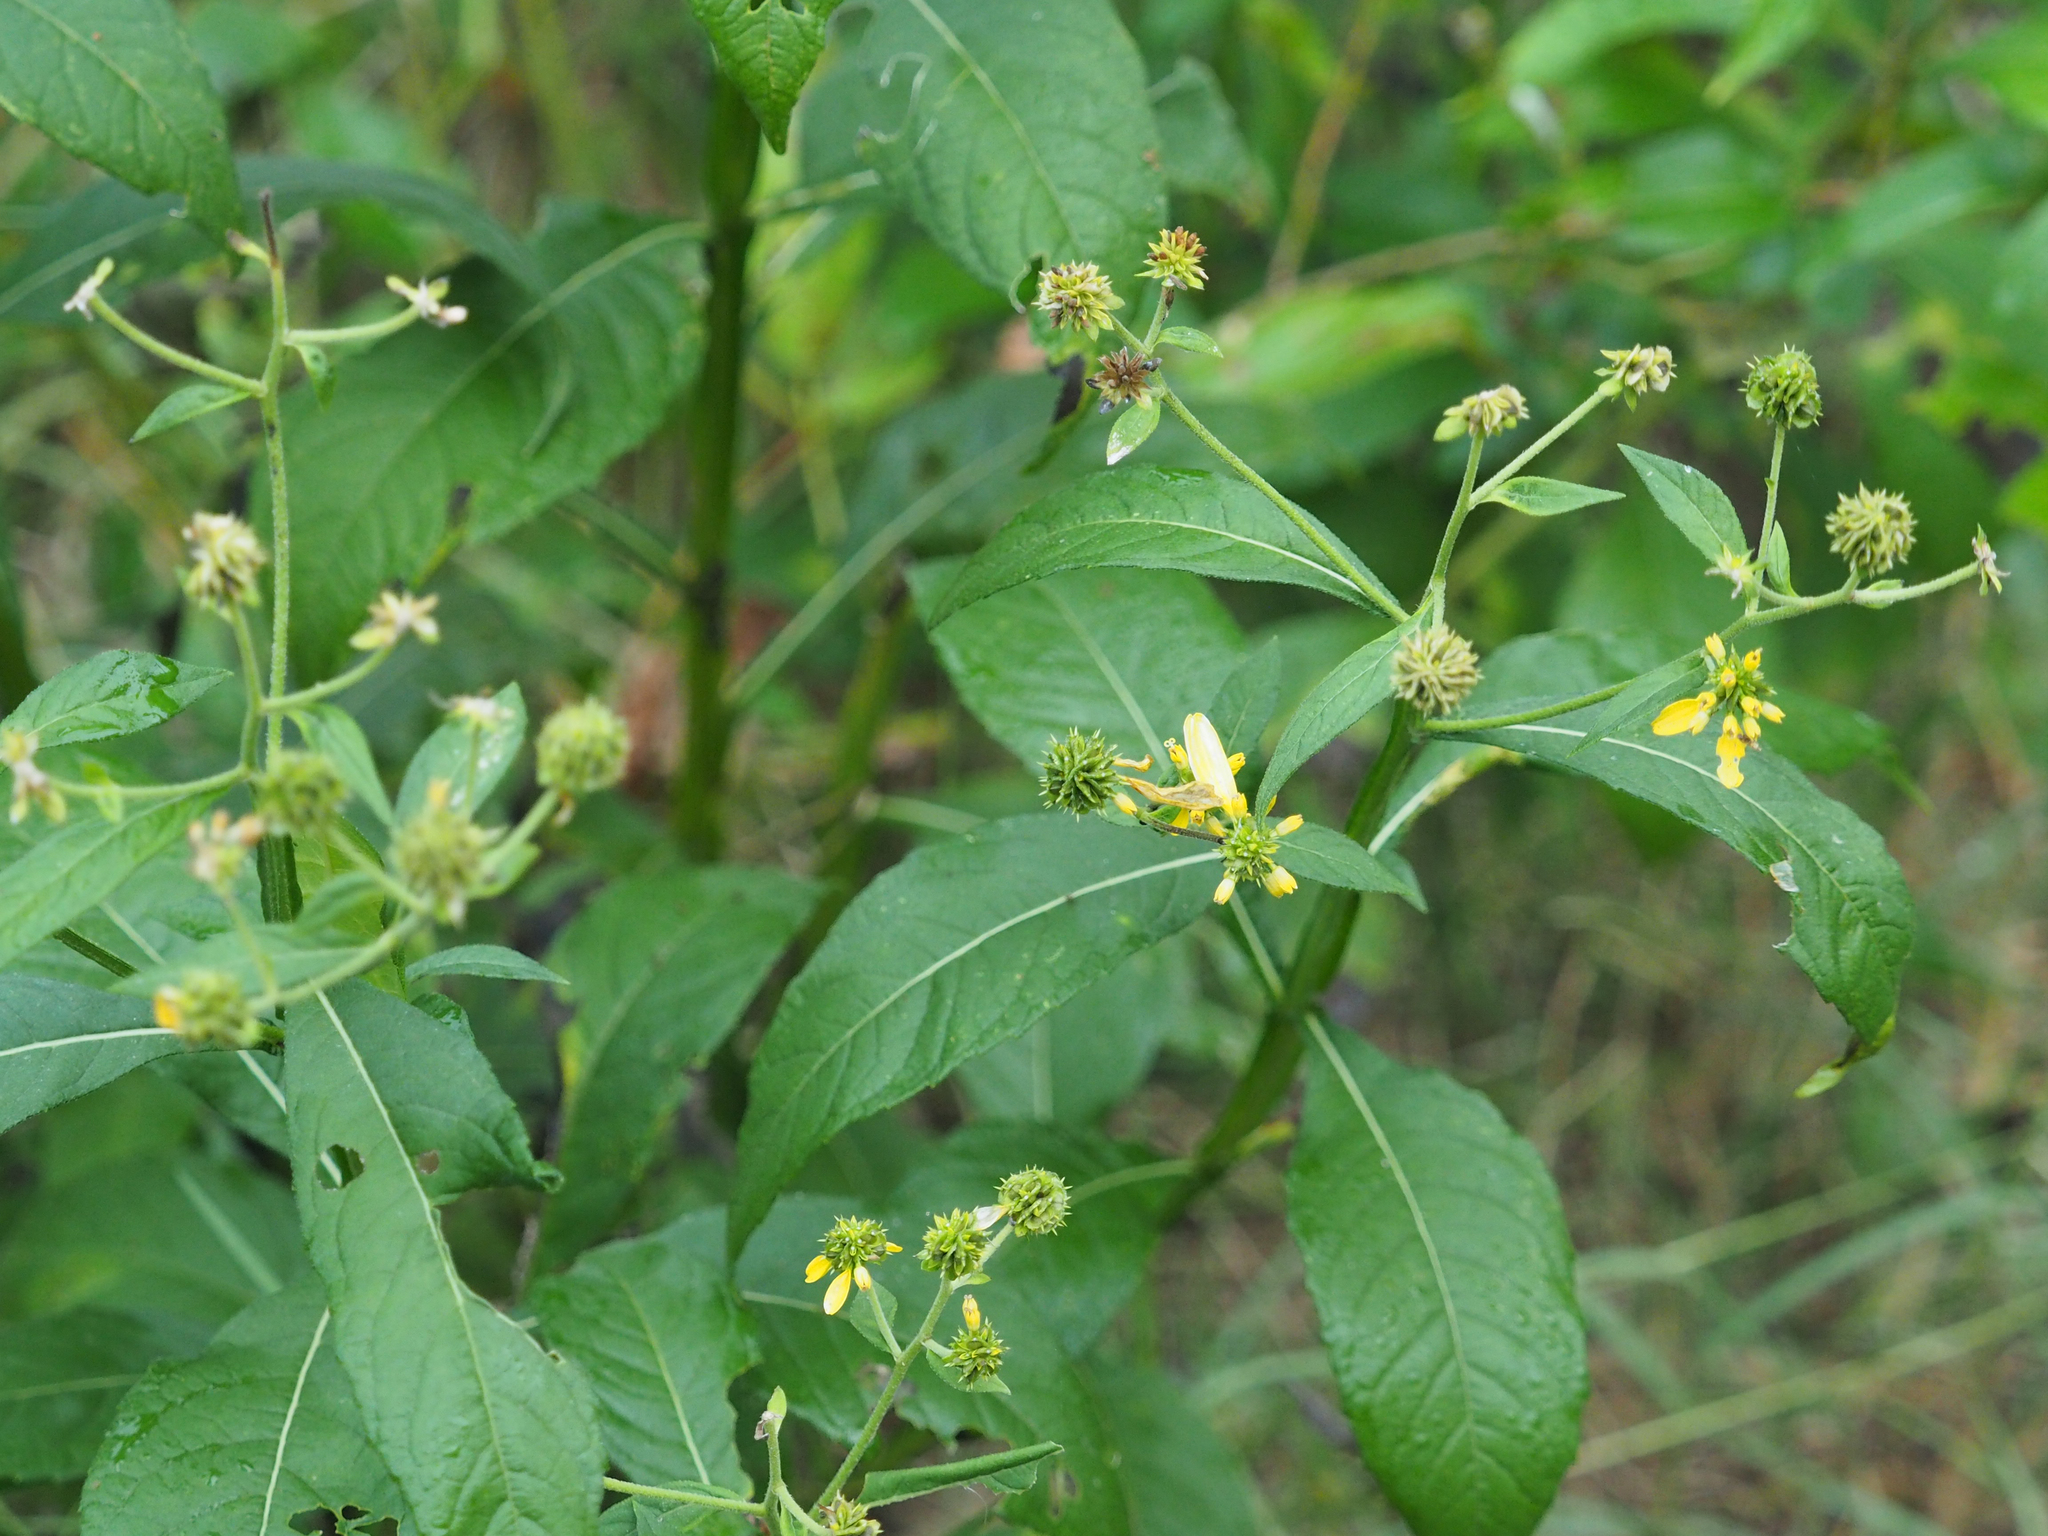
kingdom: Plantae
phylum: Tracheophyta
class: Magnoliopsida
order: Asterales
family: Asteraceae
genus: Verbesina
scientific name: Verbesina alternifolia
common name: Wingstem
